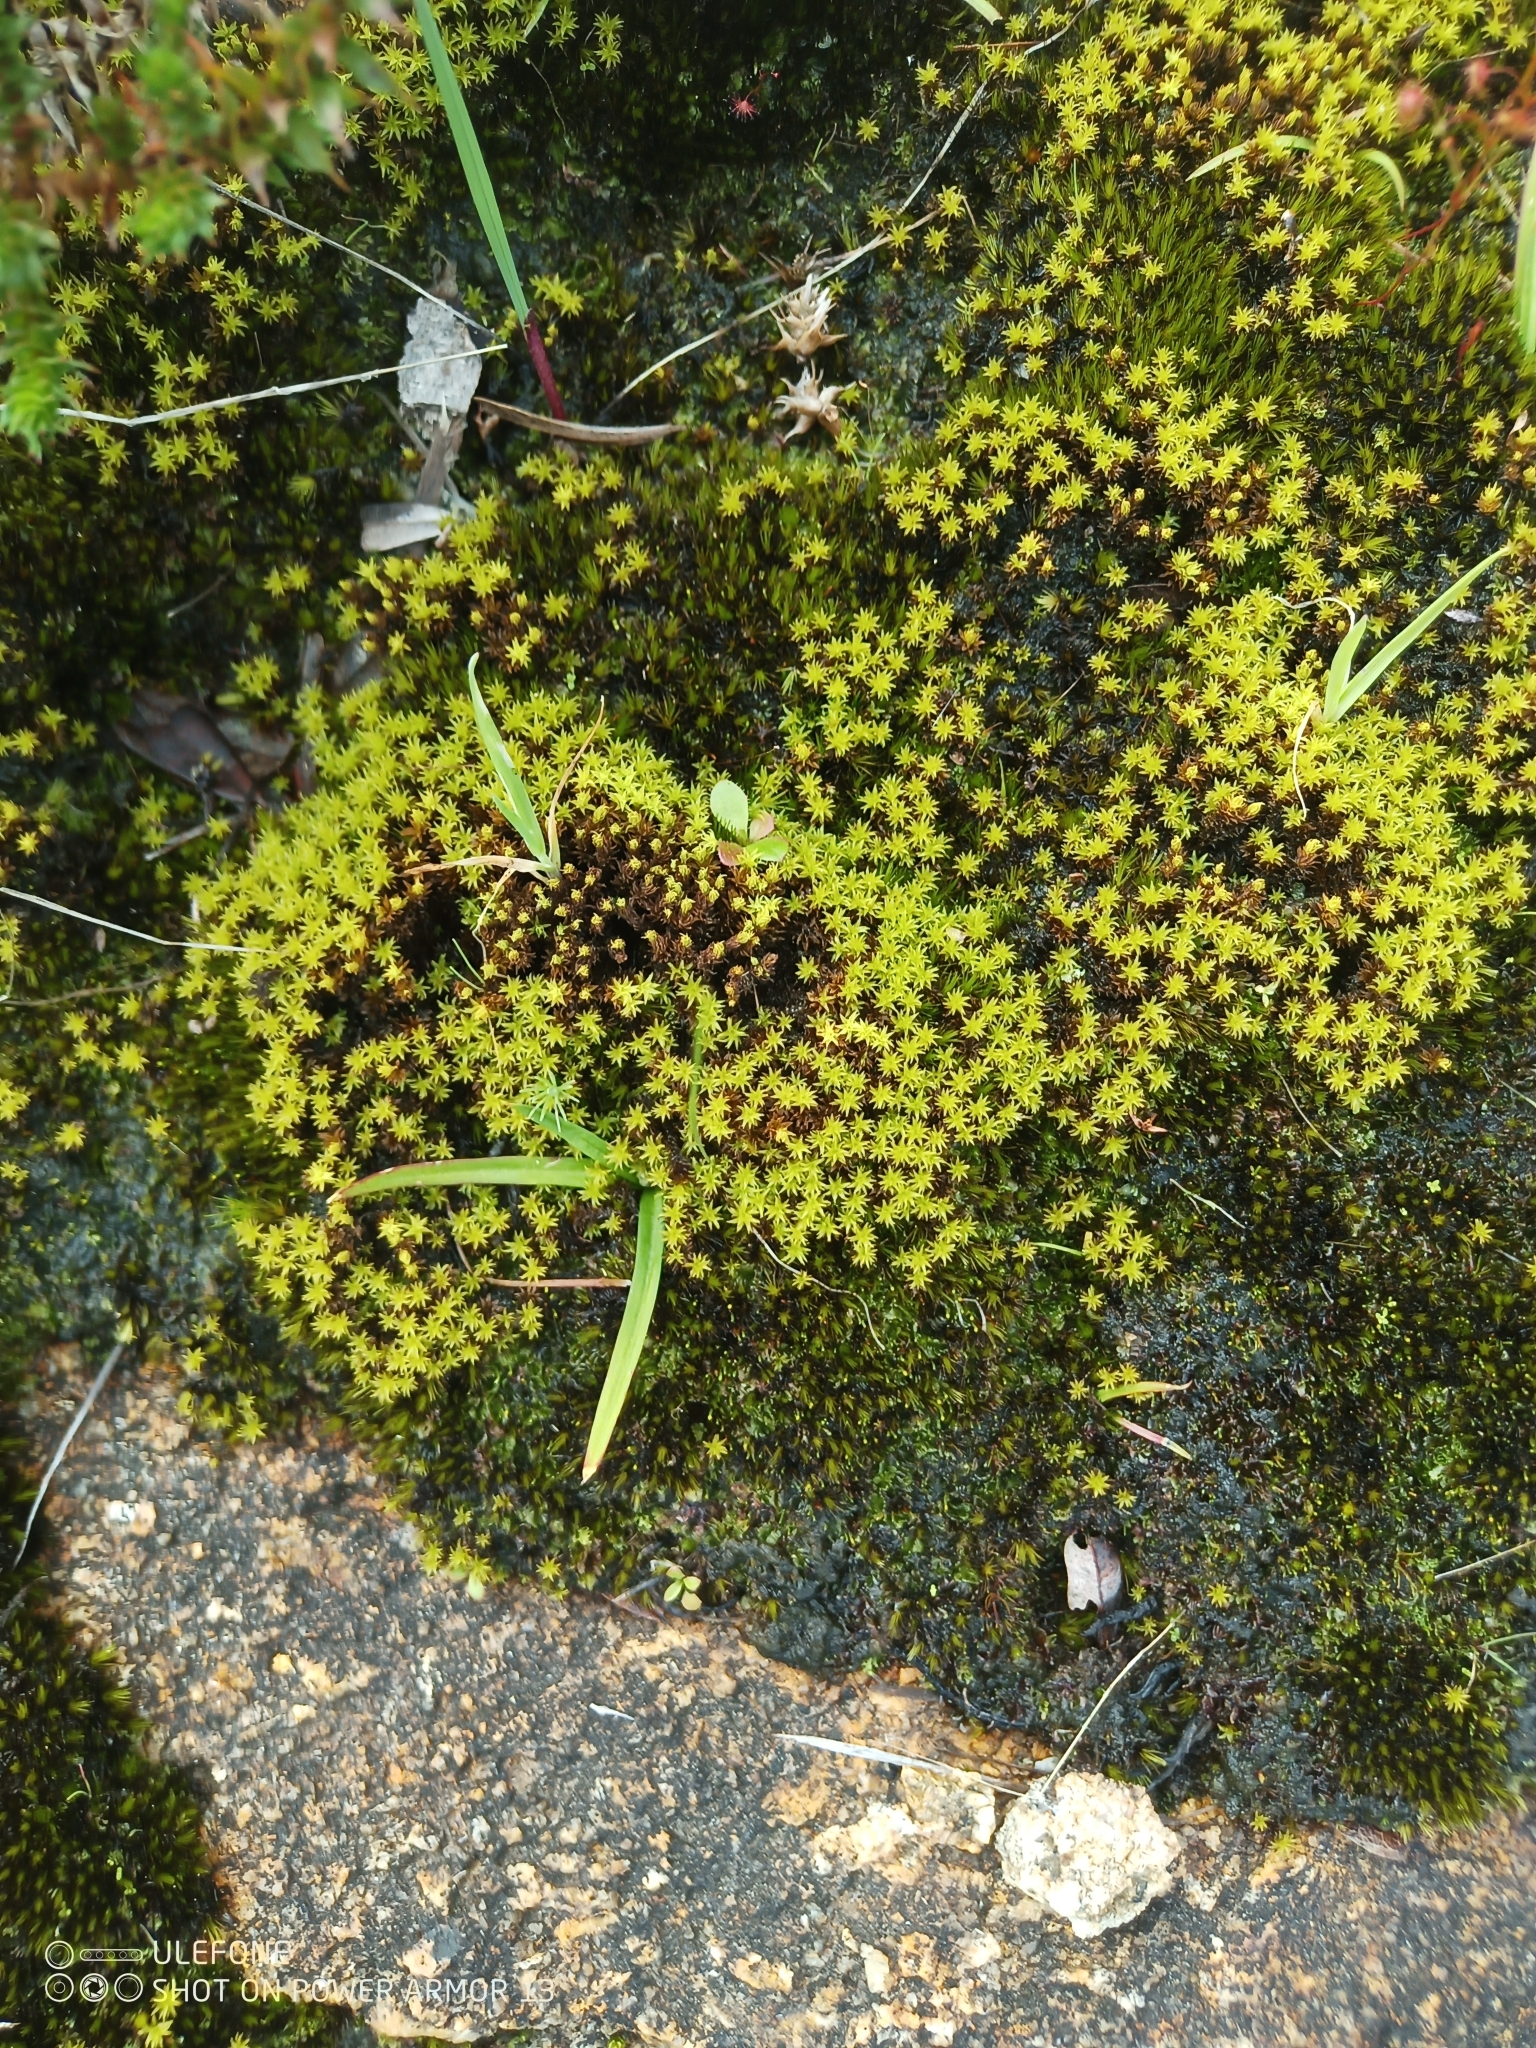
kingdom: Plantae
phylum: Bryophyta
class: Bryopsida
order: Pottiales
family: Pottiaceae
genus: Barbula
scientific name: Barbula calycina
